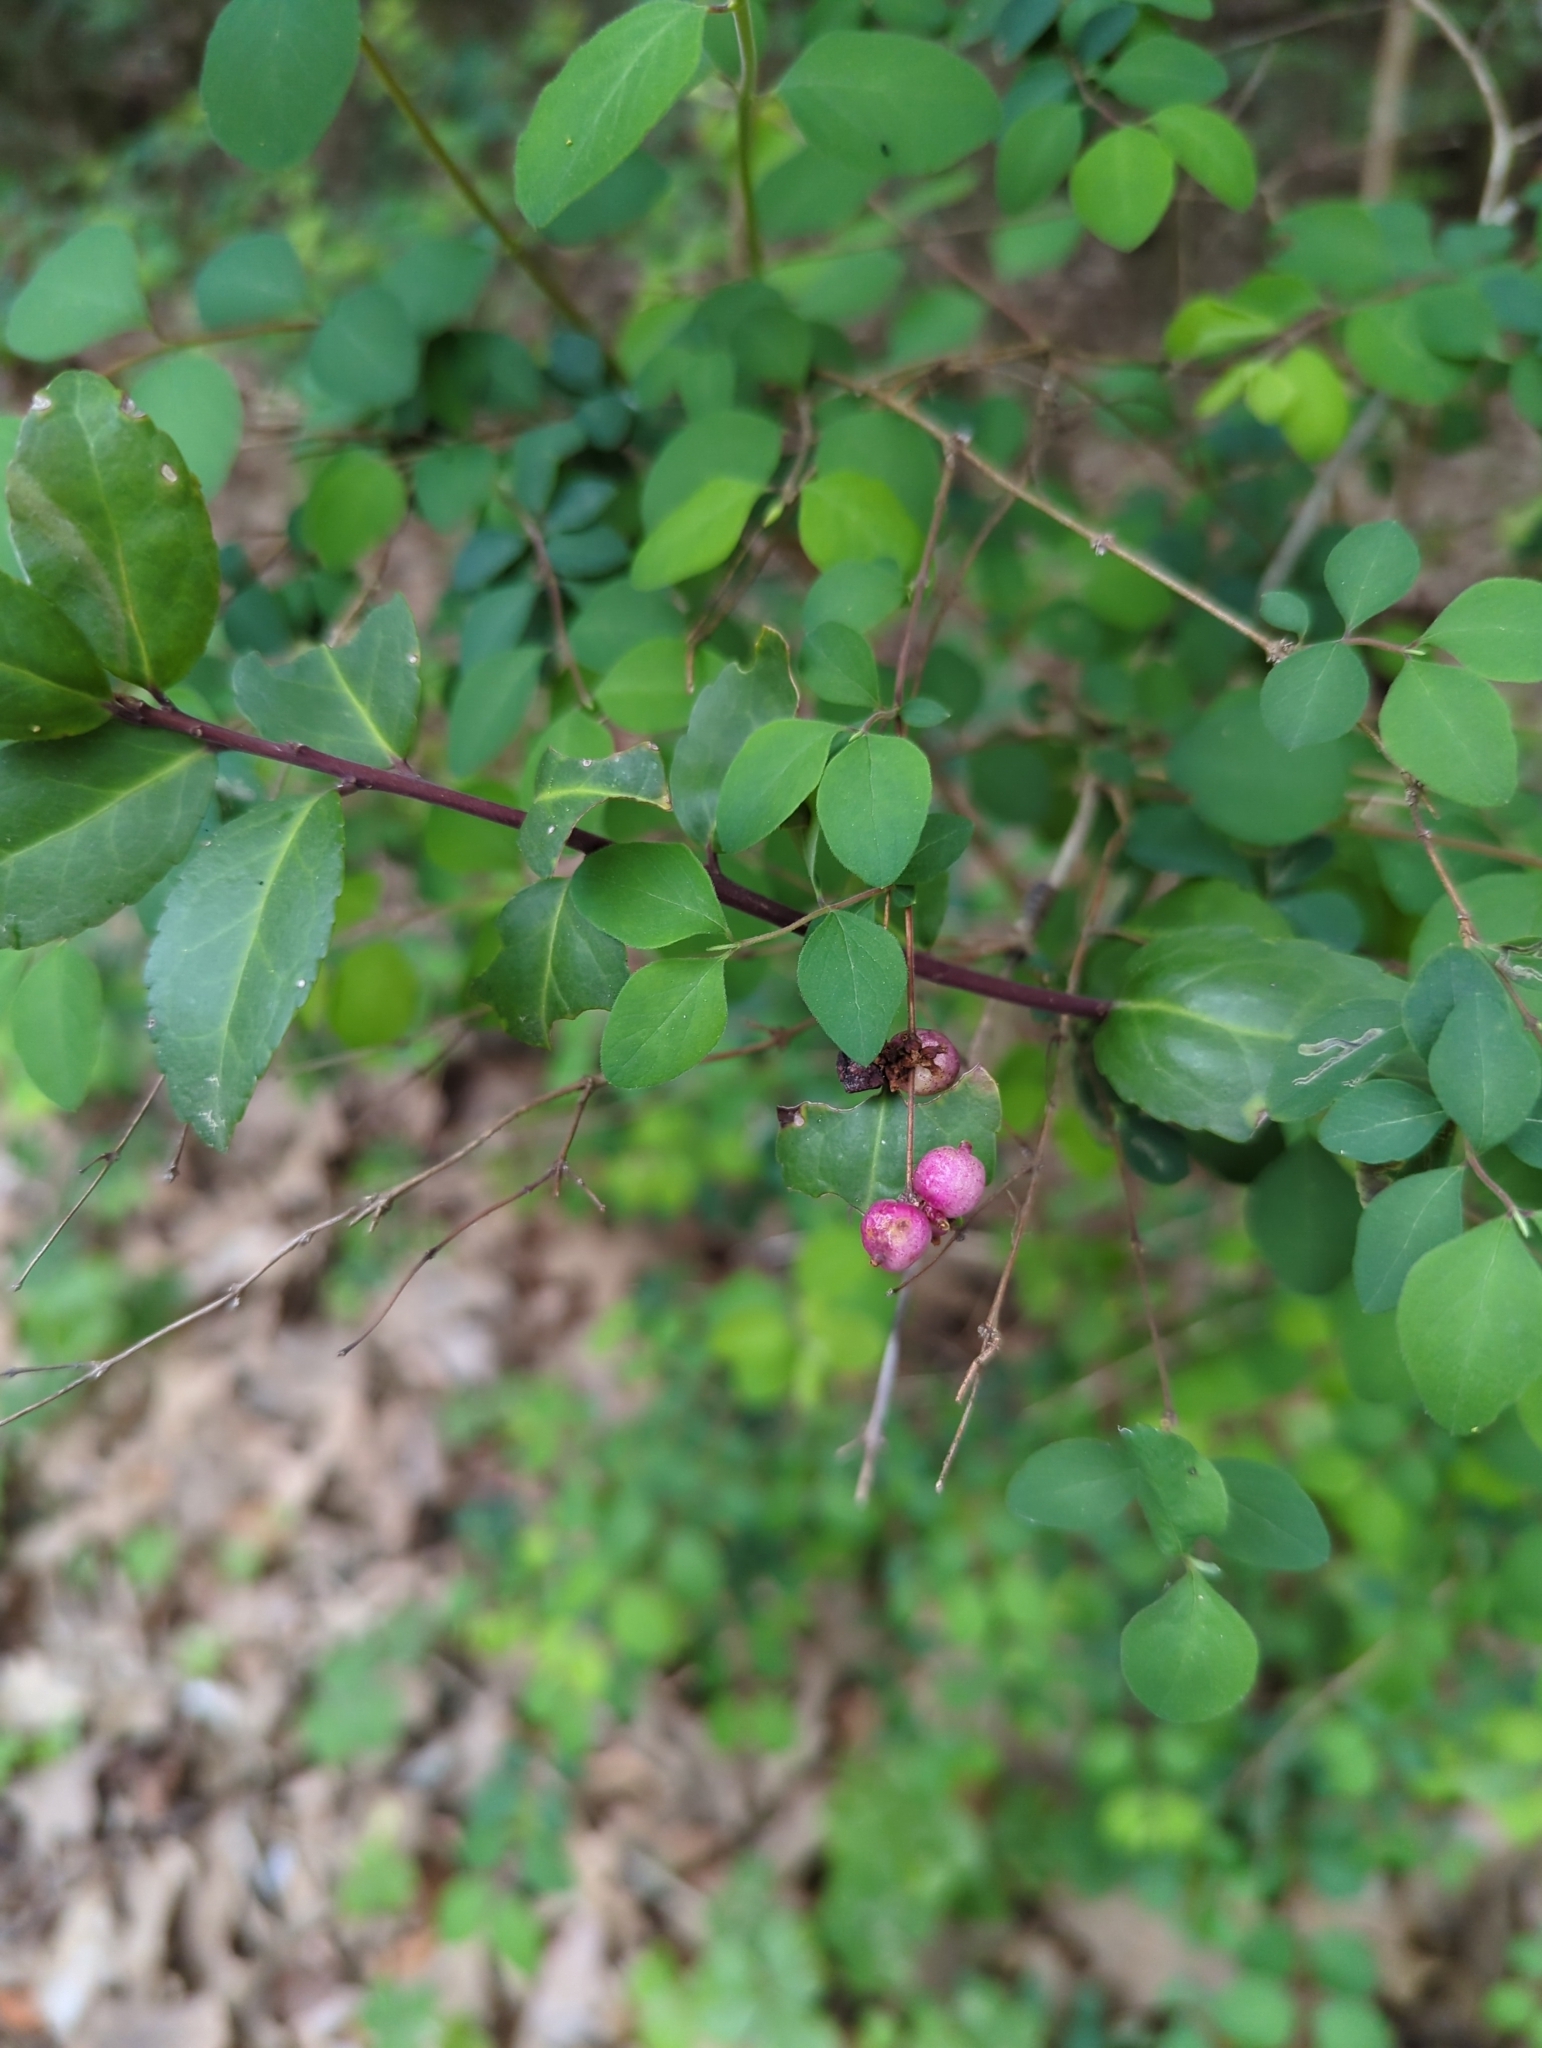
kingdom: Plantae
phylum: Tracheophyta
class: Magnoliopsida
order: Dipsacales
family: Caprifoliaceae
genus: Symphoricarpos
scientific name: Symphoricarpos orbiculatus
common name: Coralberry
